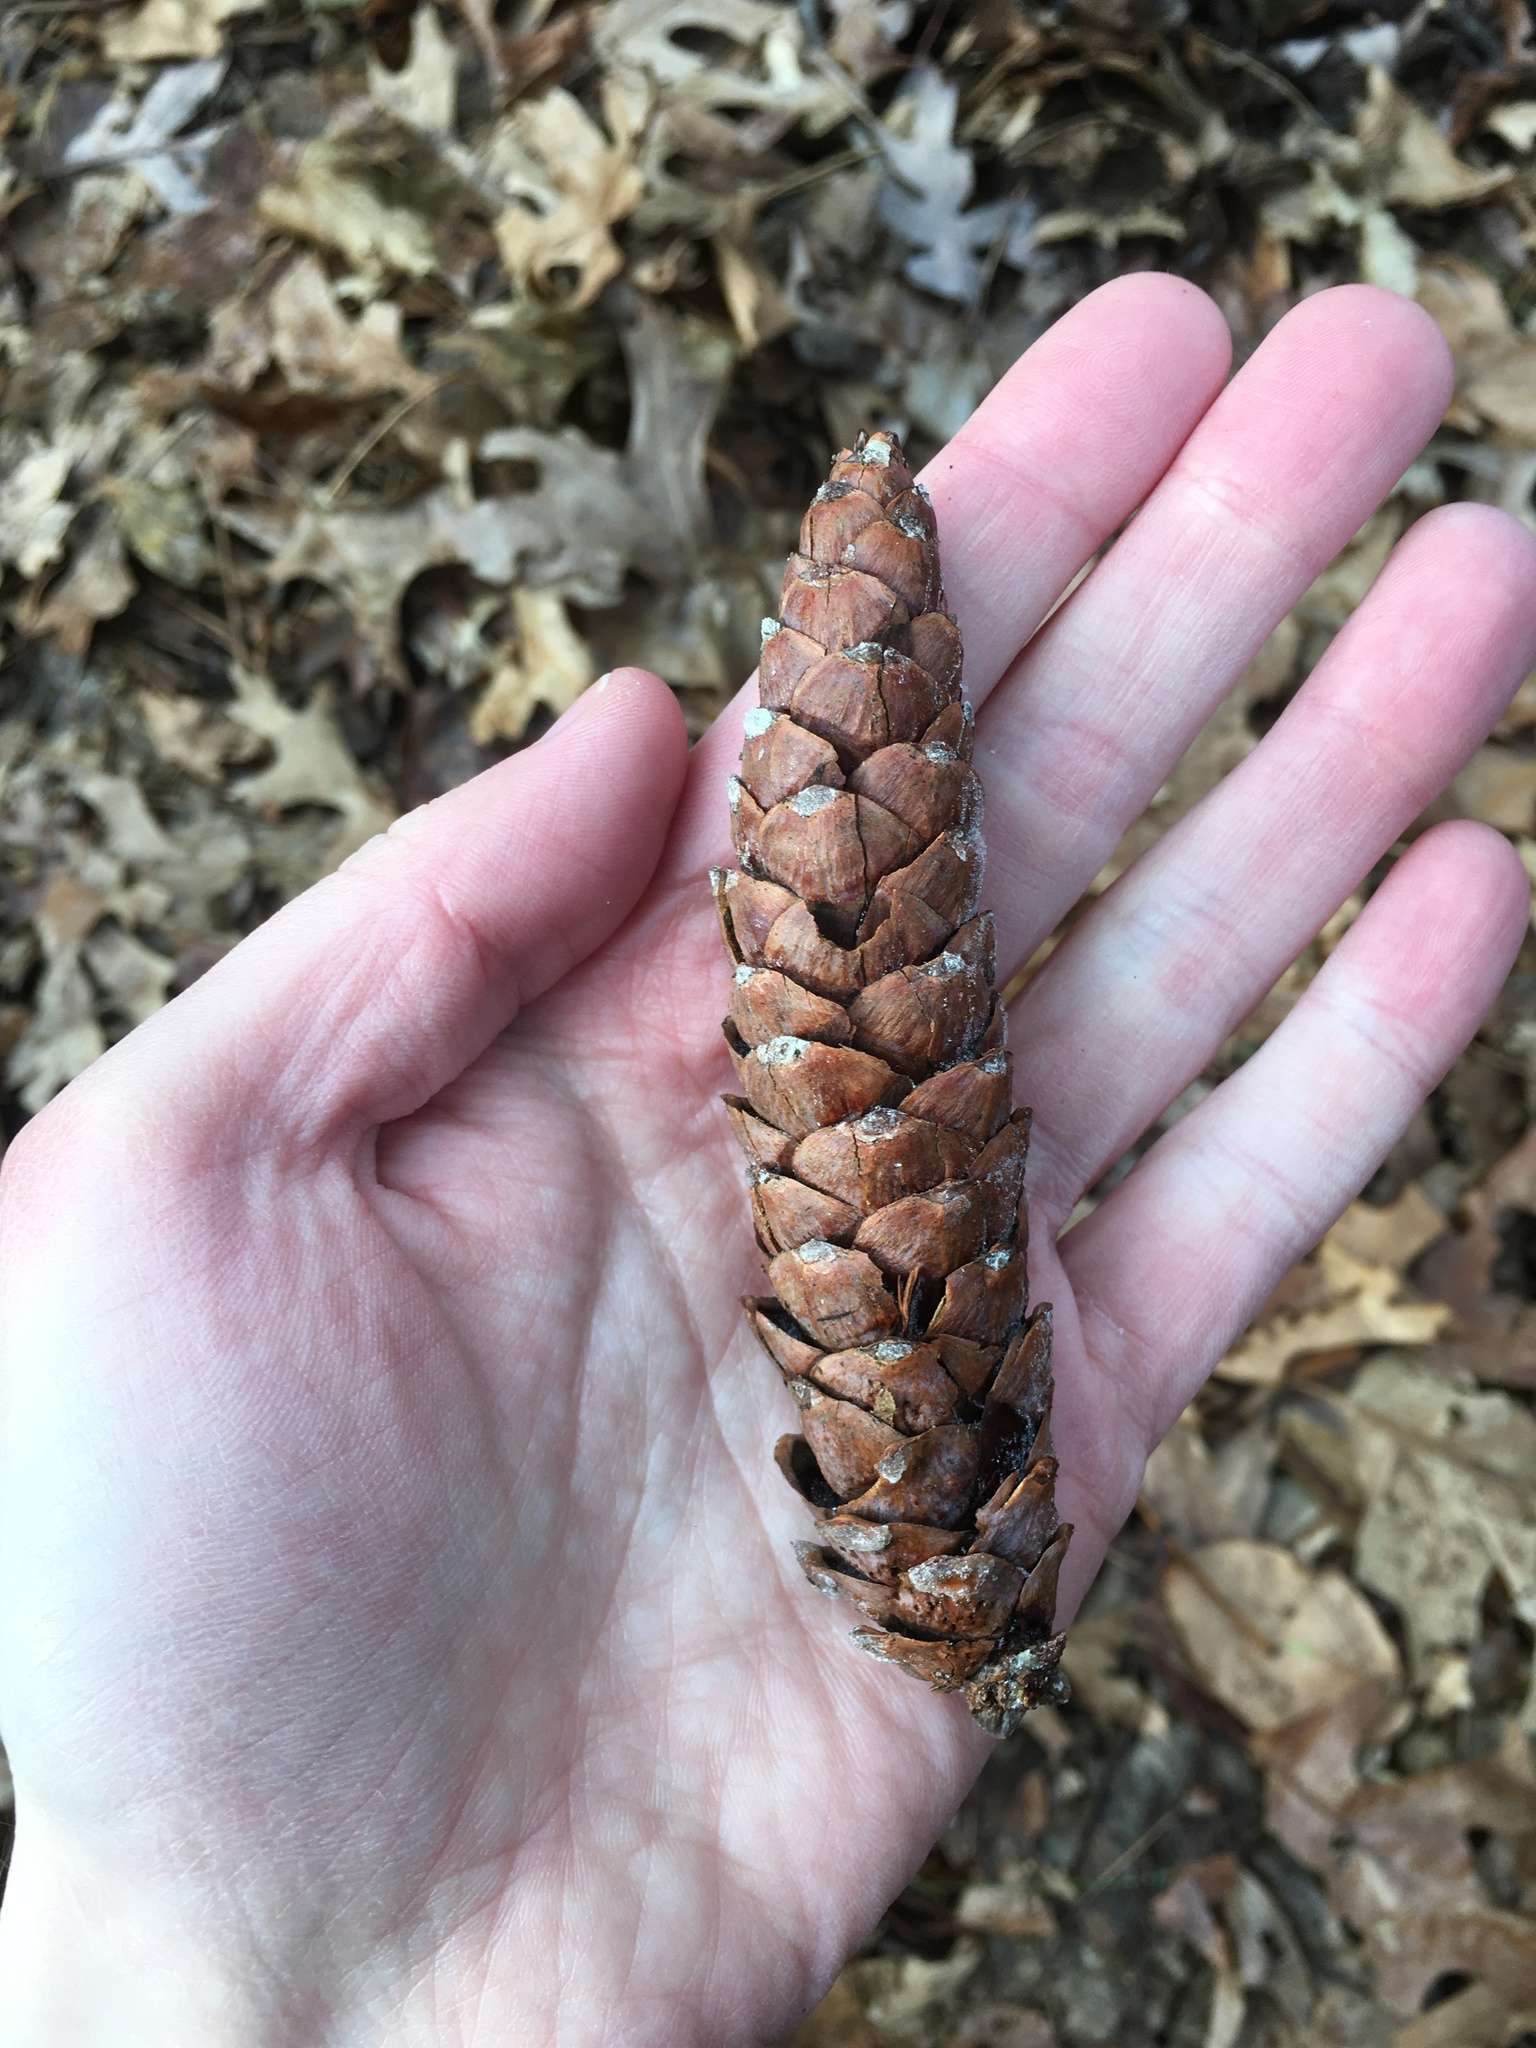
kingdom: Plantae
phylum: Tracheophyta
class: Pinopsida
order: Pinales
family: Pinaceae
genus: Pinus
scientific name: Pinus strobus
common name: Weymouth pine
